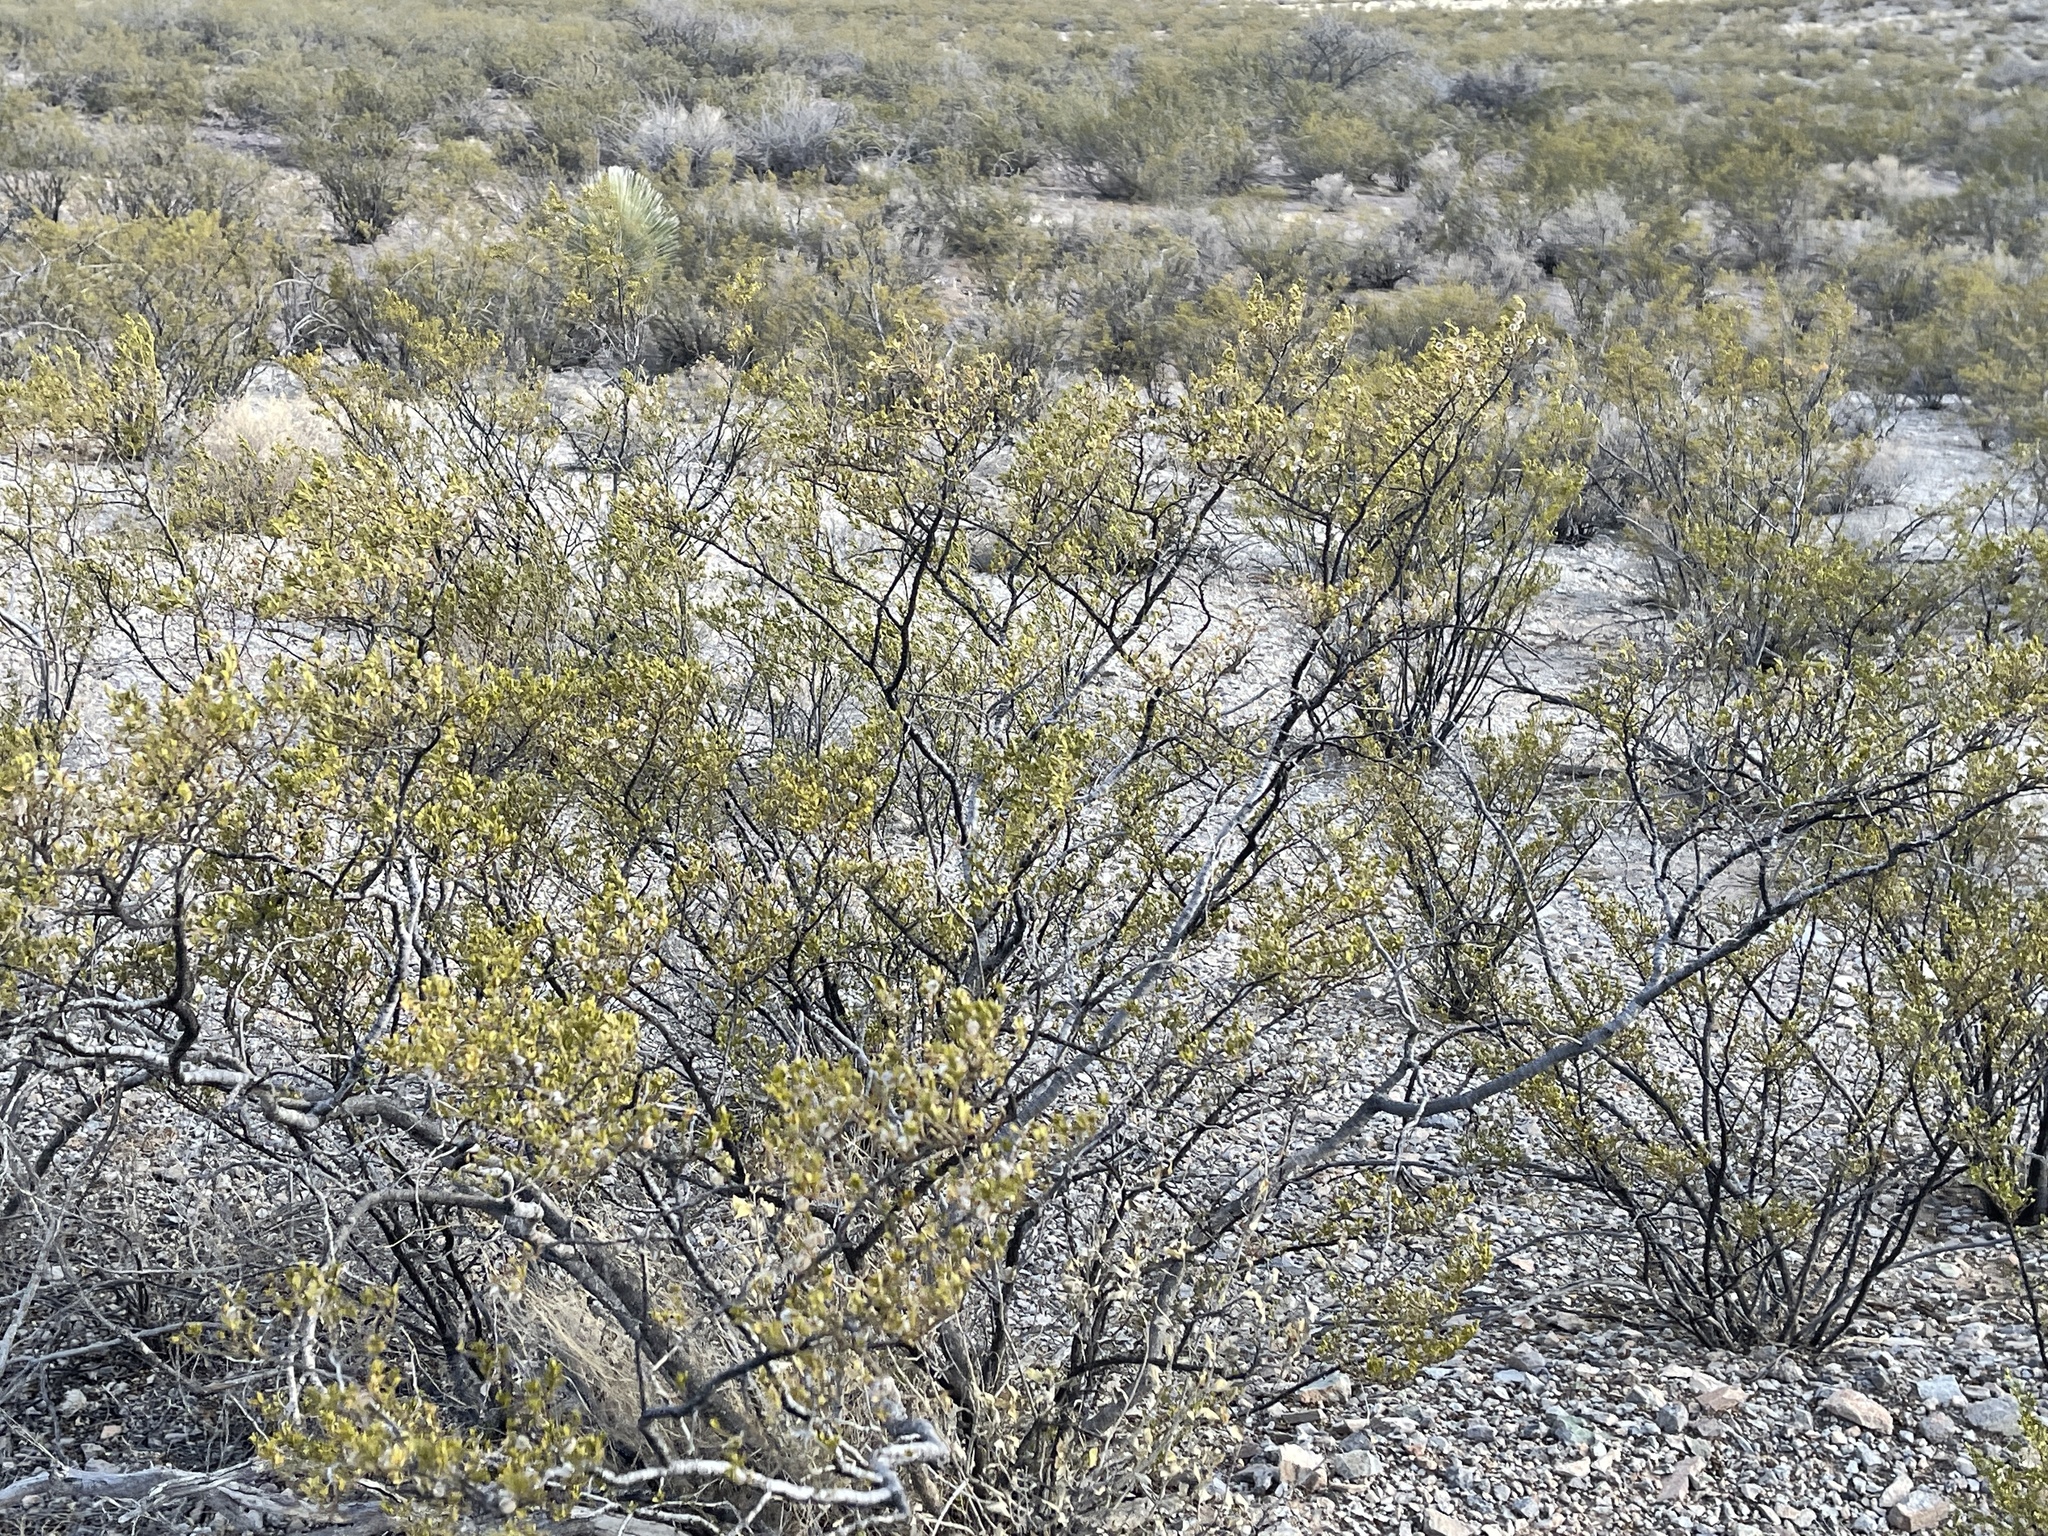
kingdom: Plantae
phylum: Tracheophyta
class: Magnoliopsida
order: Zygophyllales
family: Zygophyllaceae
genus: Larrea
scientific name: Larrea tridentata
